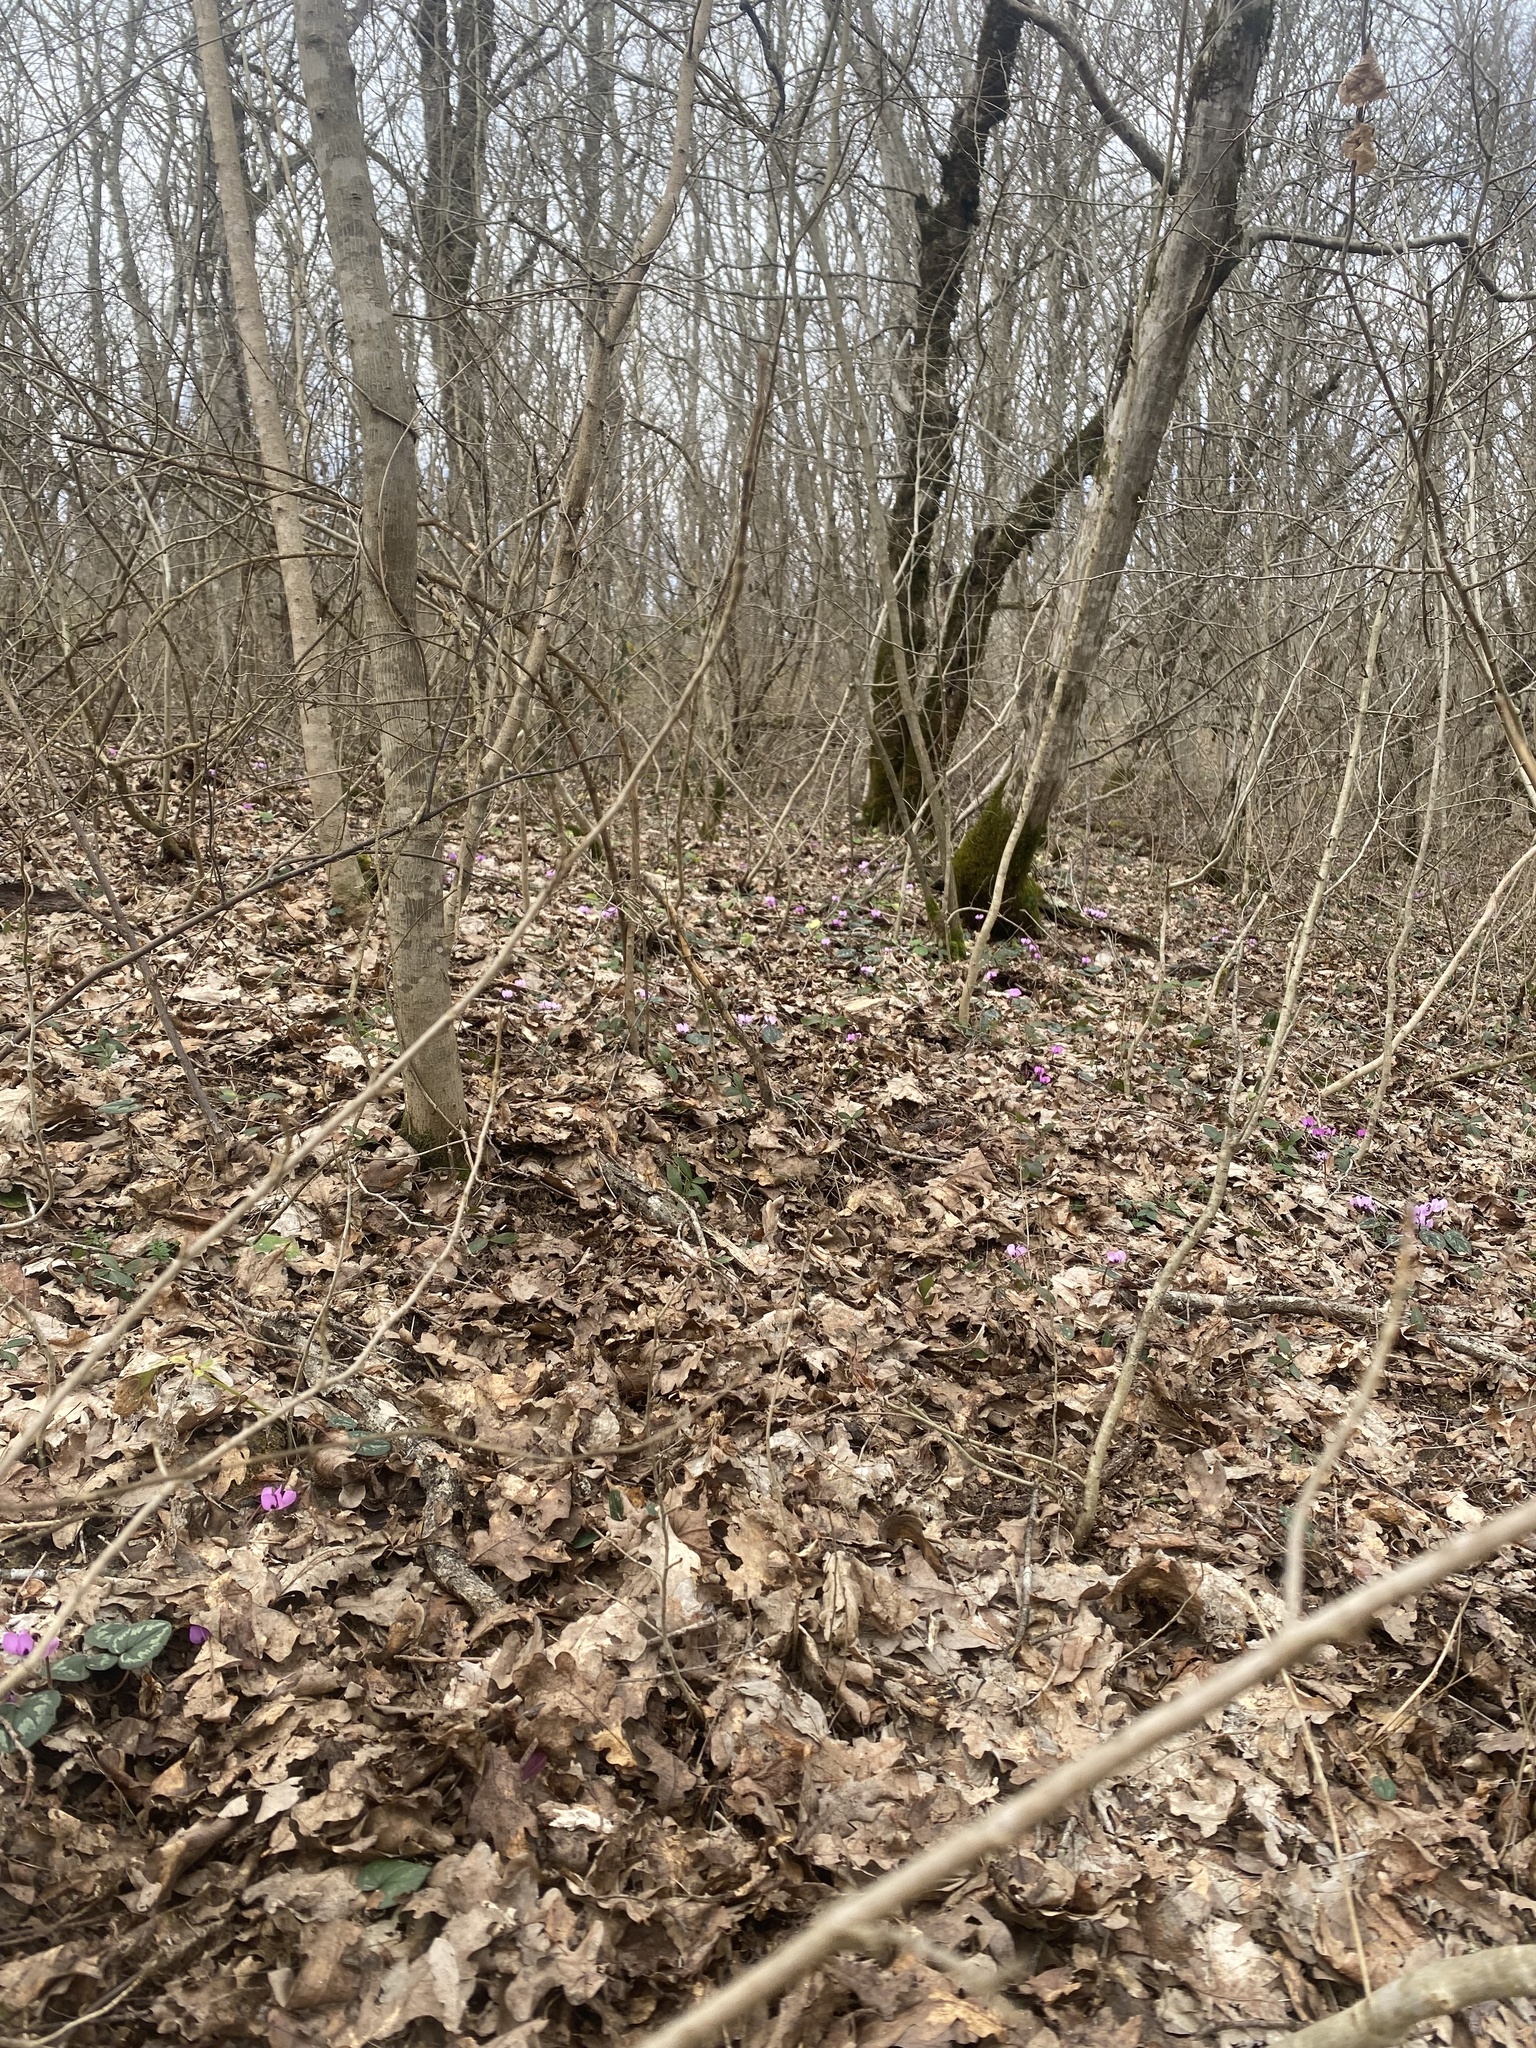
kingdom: Plantae
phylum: Tracheophyta
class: Magnoliopsida
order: Ericales
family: Primulaceae
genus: Cyclamen
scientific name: Cyclamen coum
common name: Eastern sowbread
